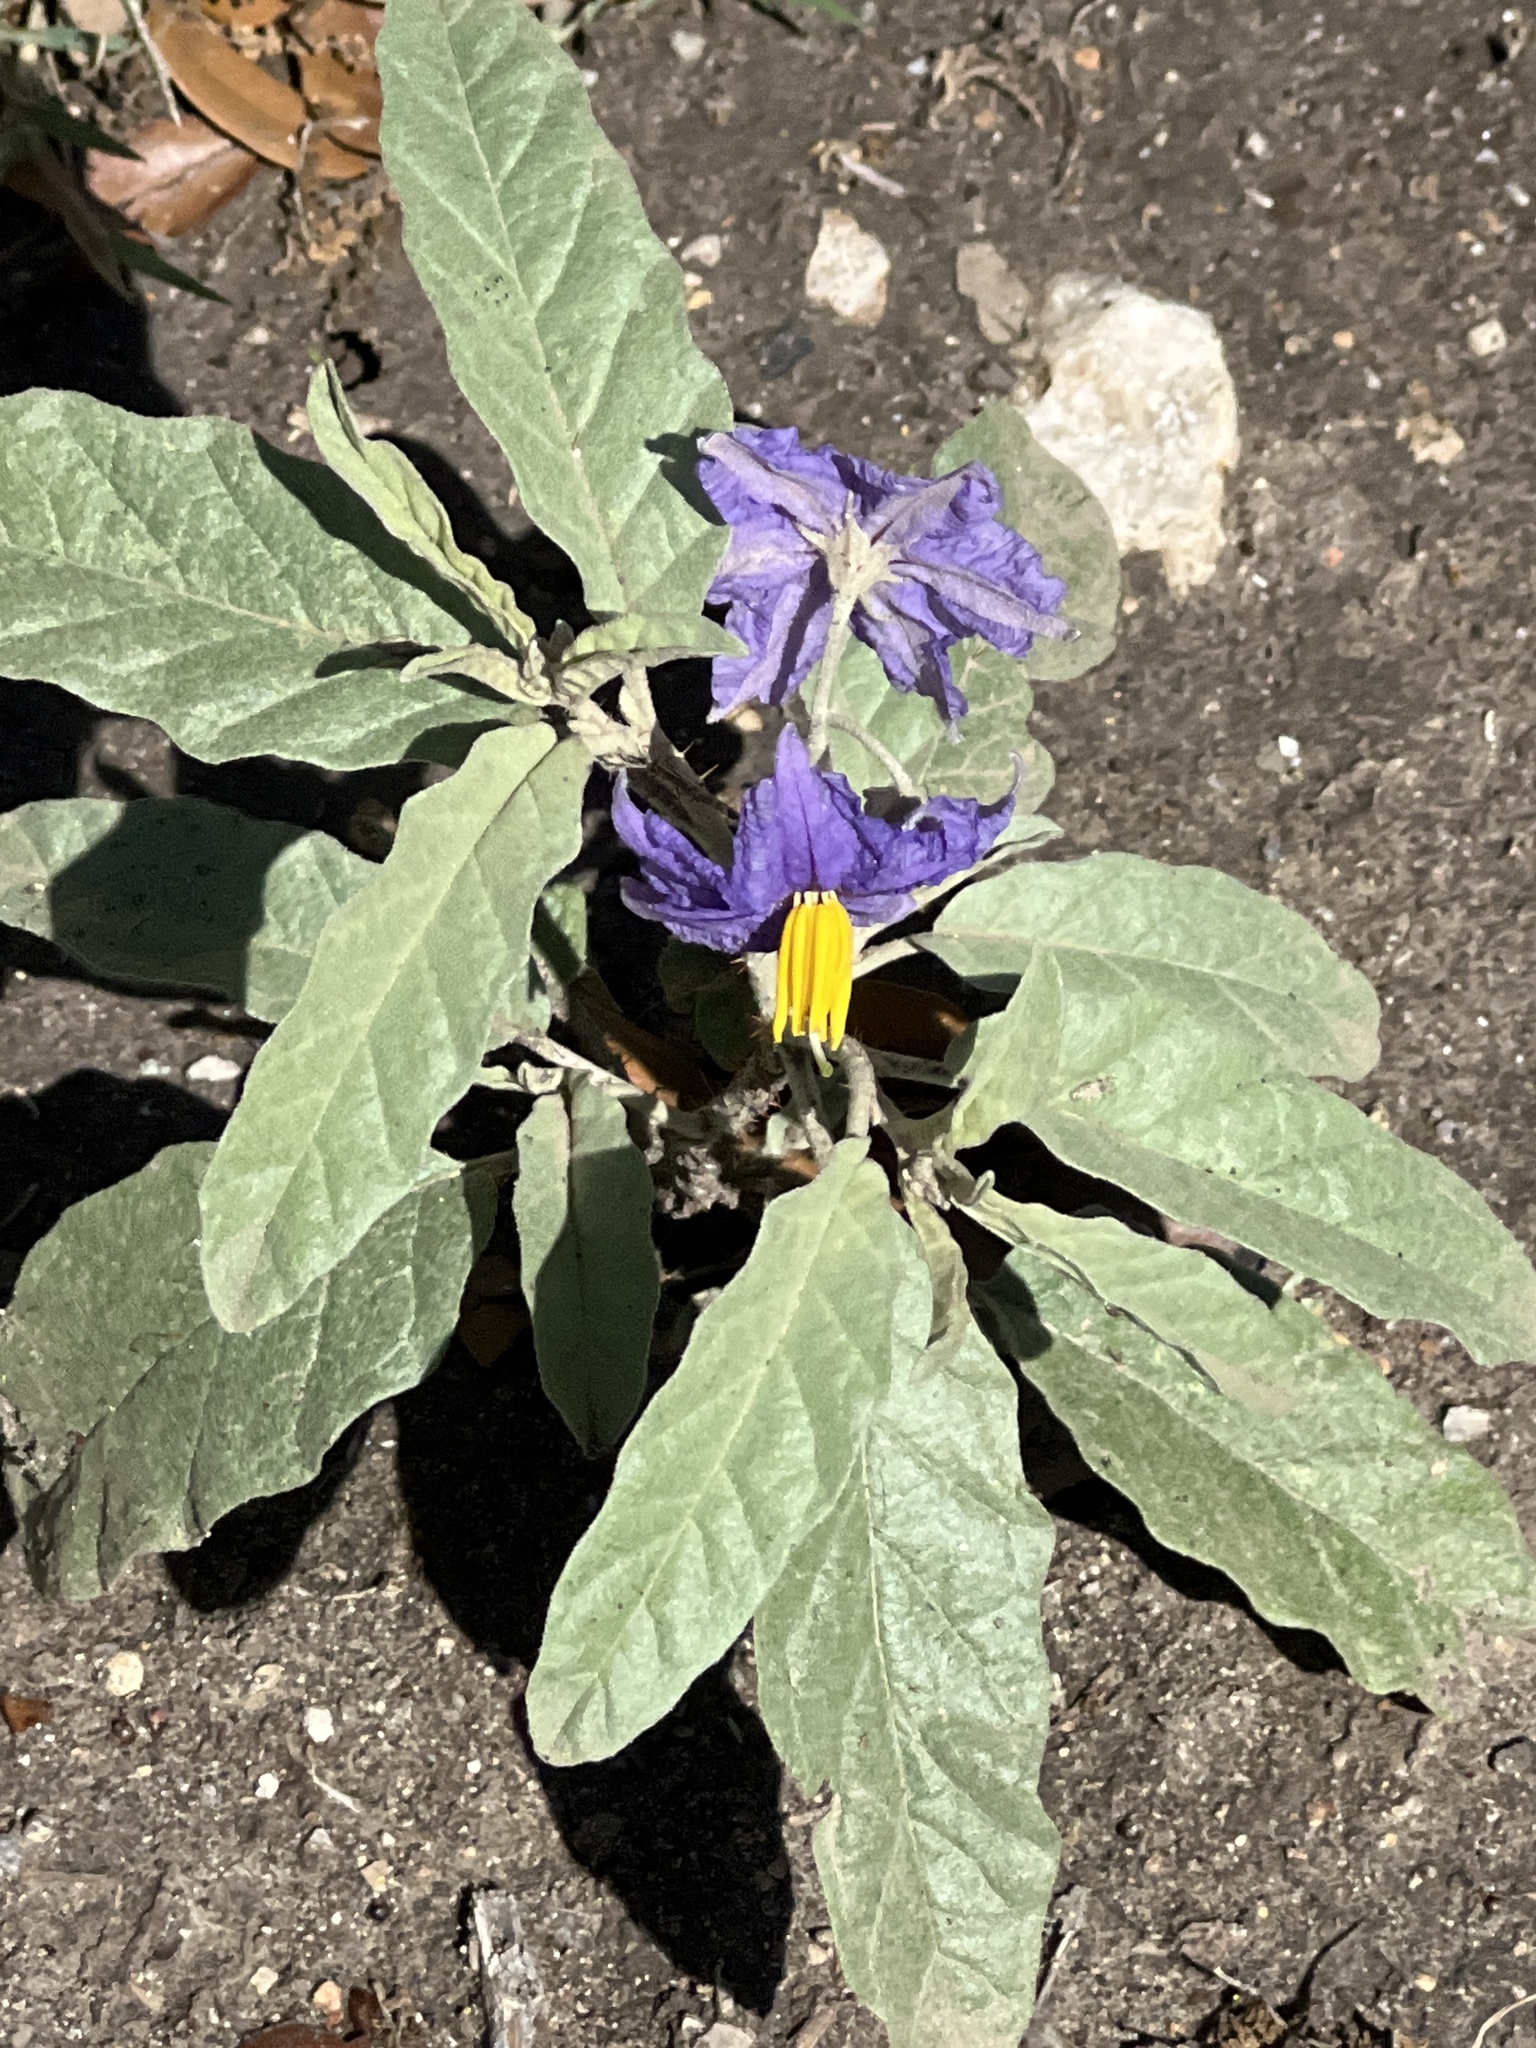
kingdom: Plantae
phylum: Tracheophyta
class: Magnoliopsida
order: Solanales
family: Solanaceae
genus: Solanum
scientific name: Solanum elaeagnifolium
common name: Silverleaf nightshade
